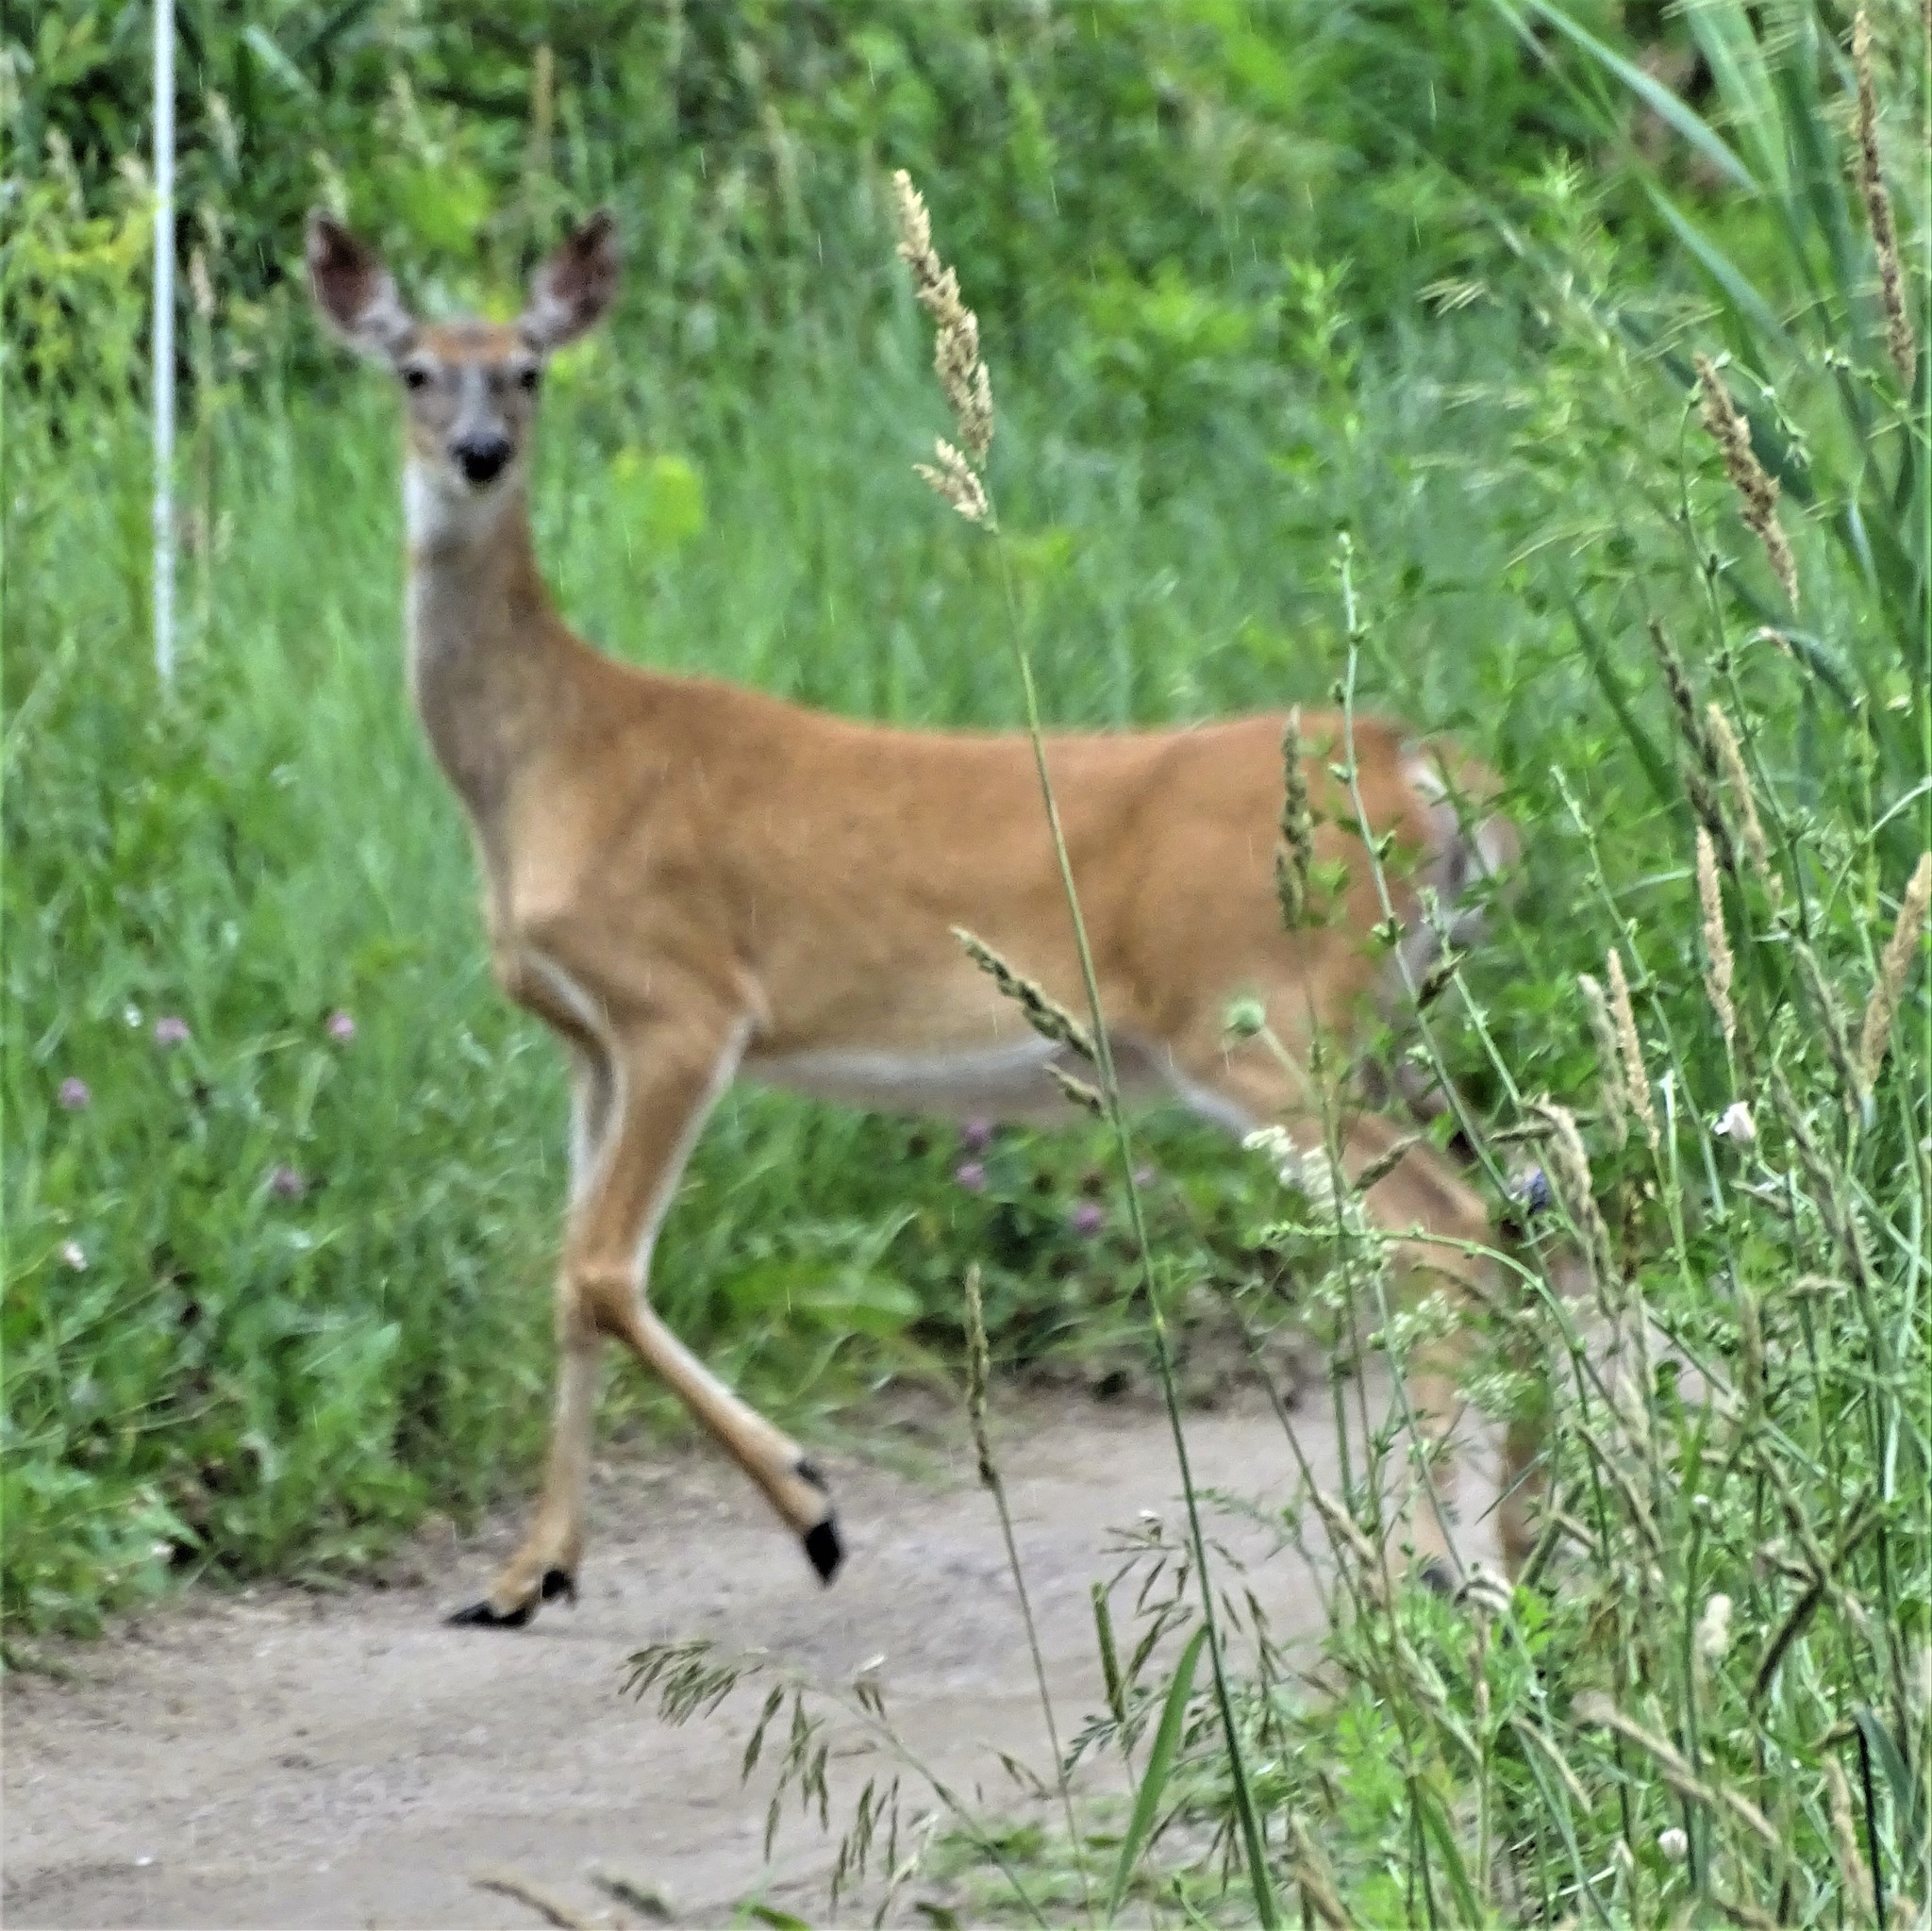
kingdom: Animalia
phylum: Chordata
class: Mammalia
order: Artiodactyla
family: Cervidae
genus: Odocoileus
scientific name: Odocoileus virginianus
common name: White-tailed deer
